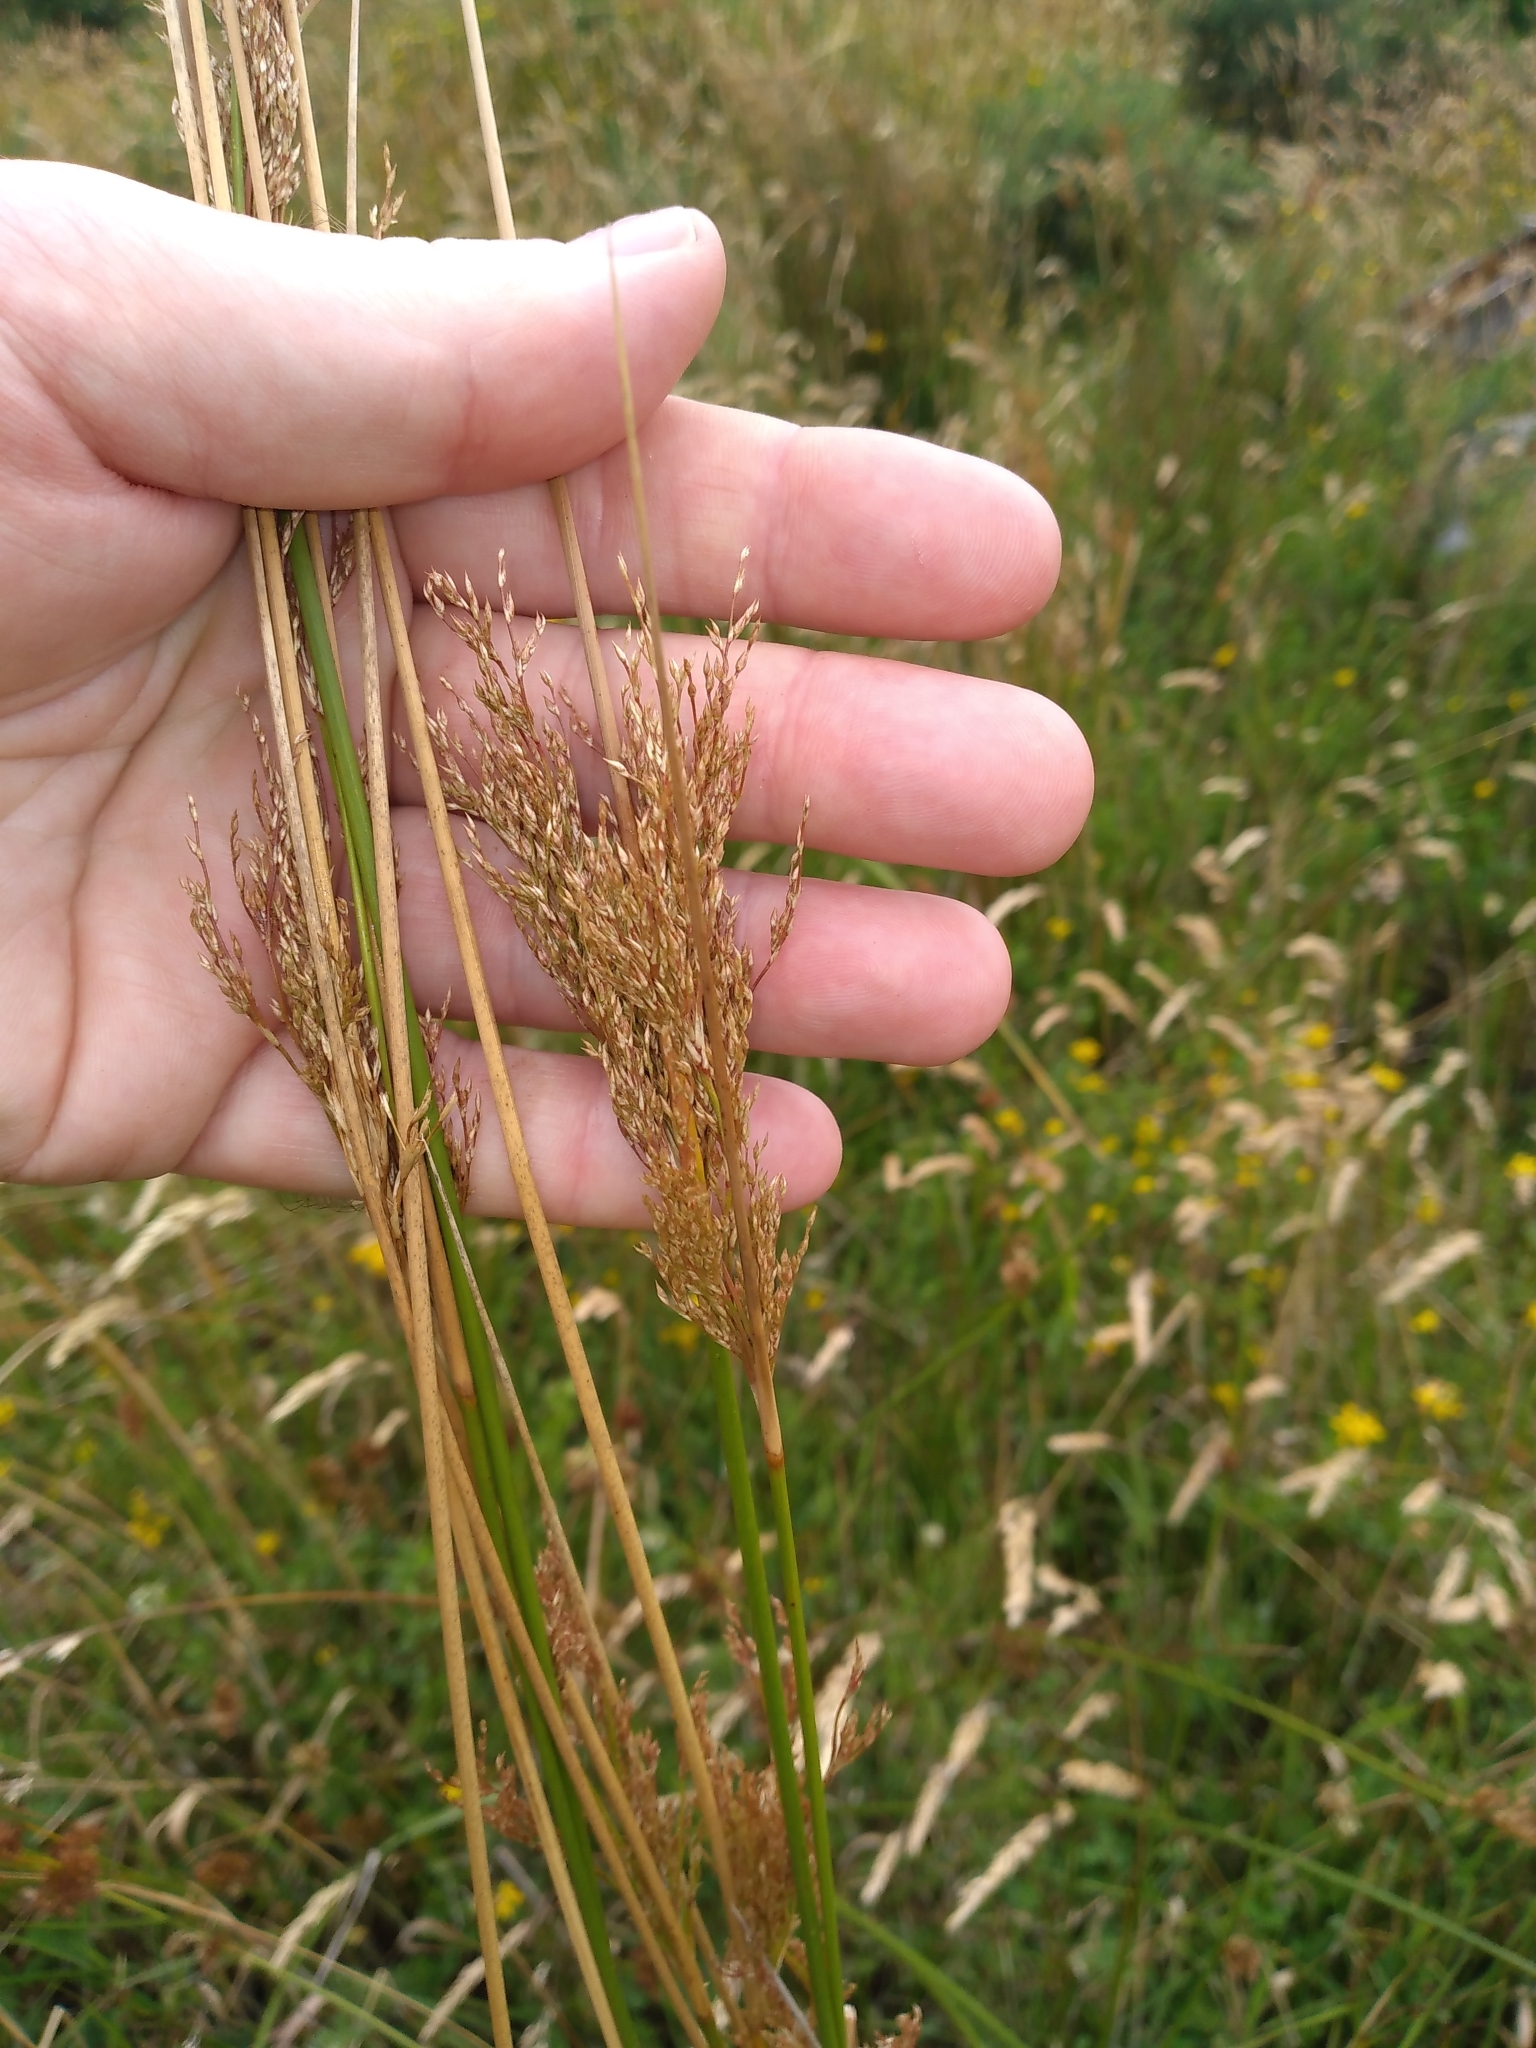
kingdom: Plantae
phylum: Tracheophyta
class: Liliopsida
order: Poales
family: Juncaceae
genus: Juncus
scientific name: Juncus sarophorus
